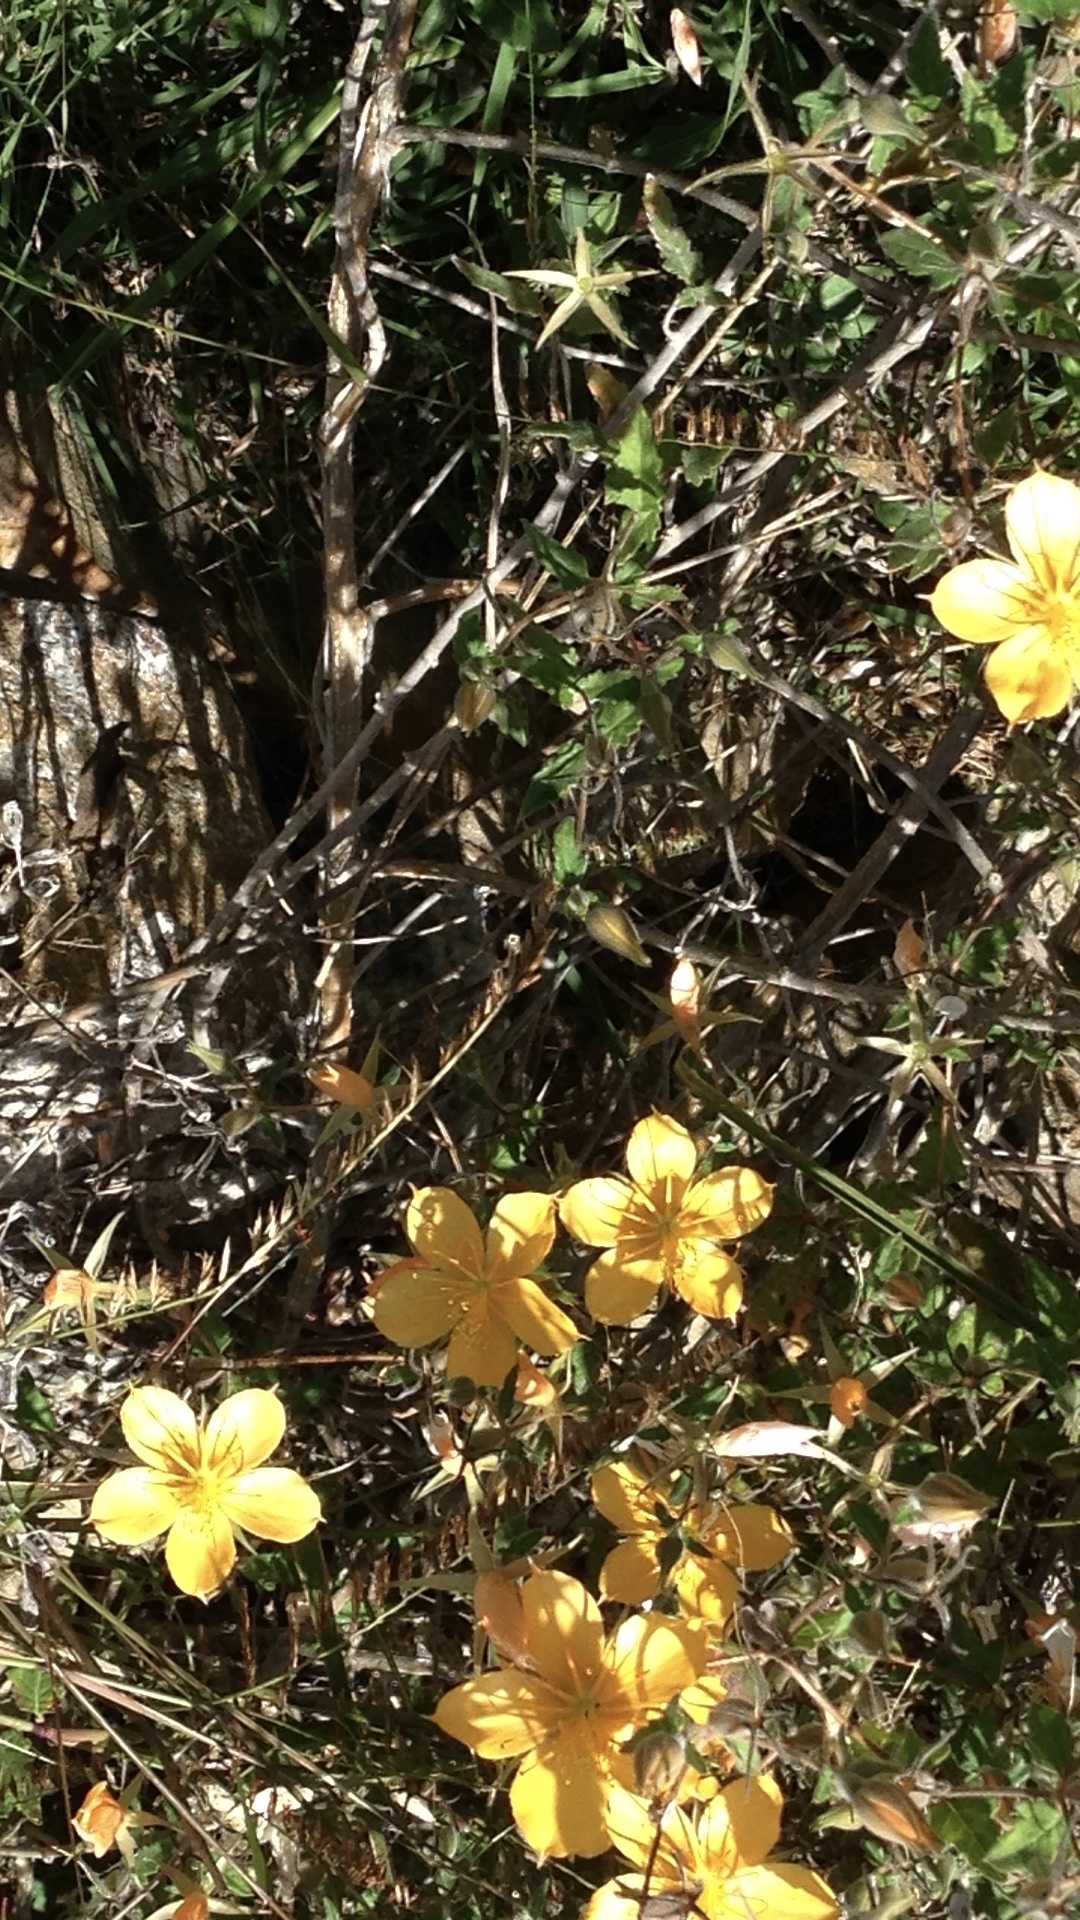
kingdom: Plantae
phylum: Tracheophyta
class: Magnoliopsida
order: Cornales
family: Loasaceae
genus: Mentzelia
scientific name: Mentzelia hispida
